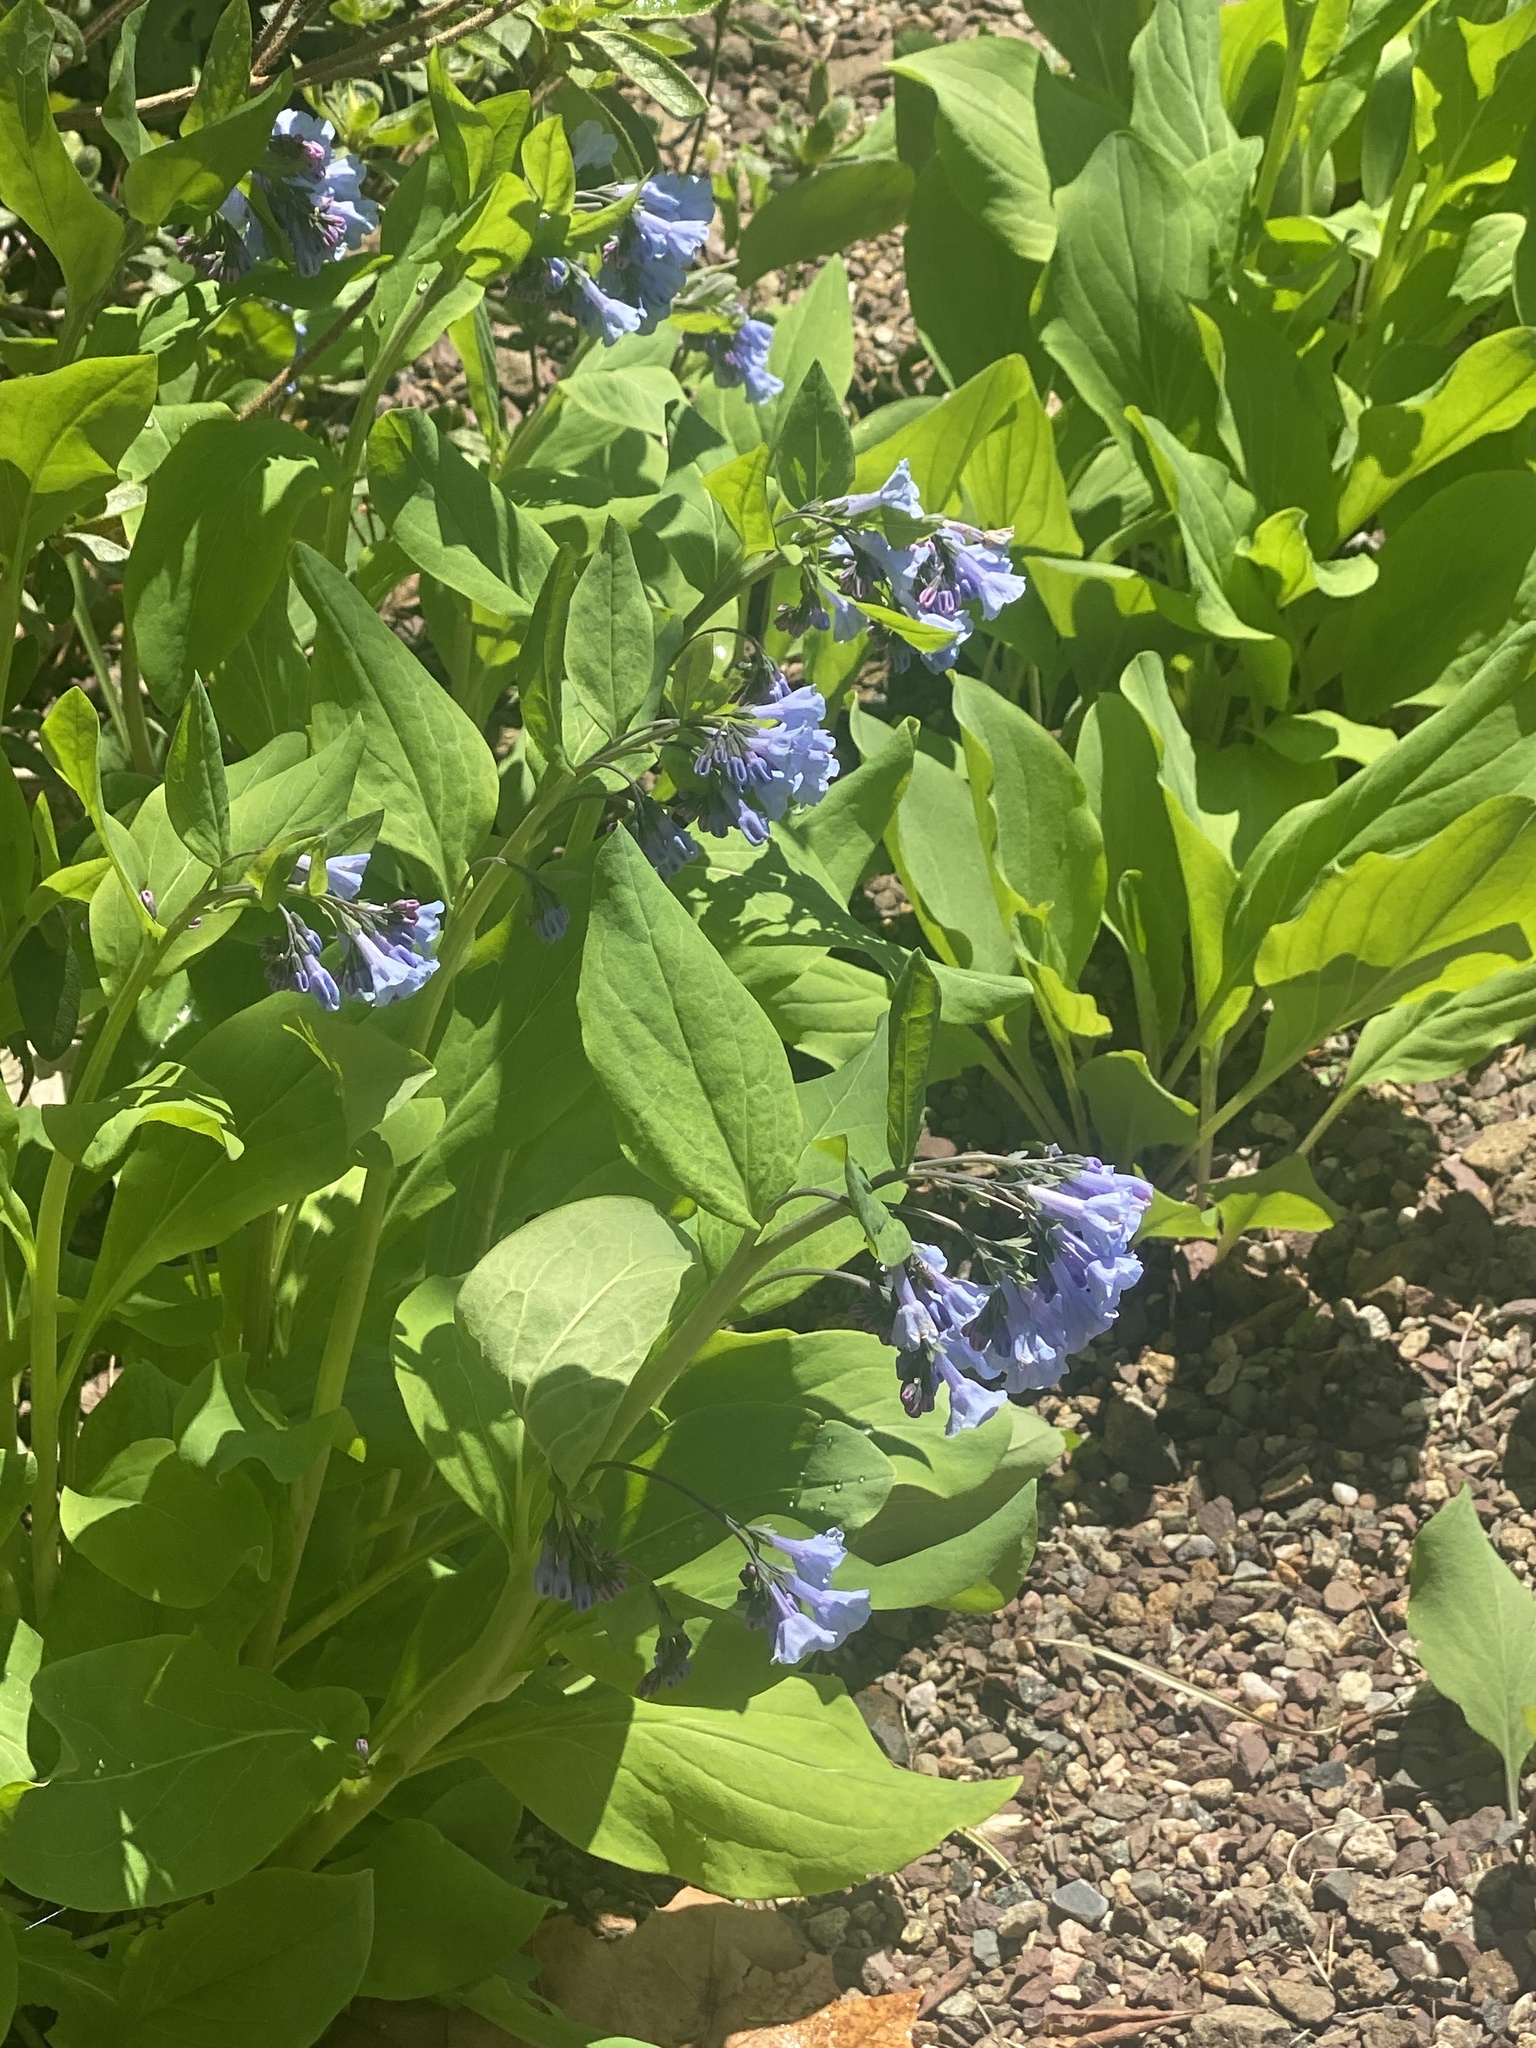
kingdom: Plantae
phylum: Tracheophyta
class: Magnoliopsida
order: Boraginales
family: Boraginaceae
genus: Mertensia
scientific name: Mertensia virginica
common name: Virginia bluebells
